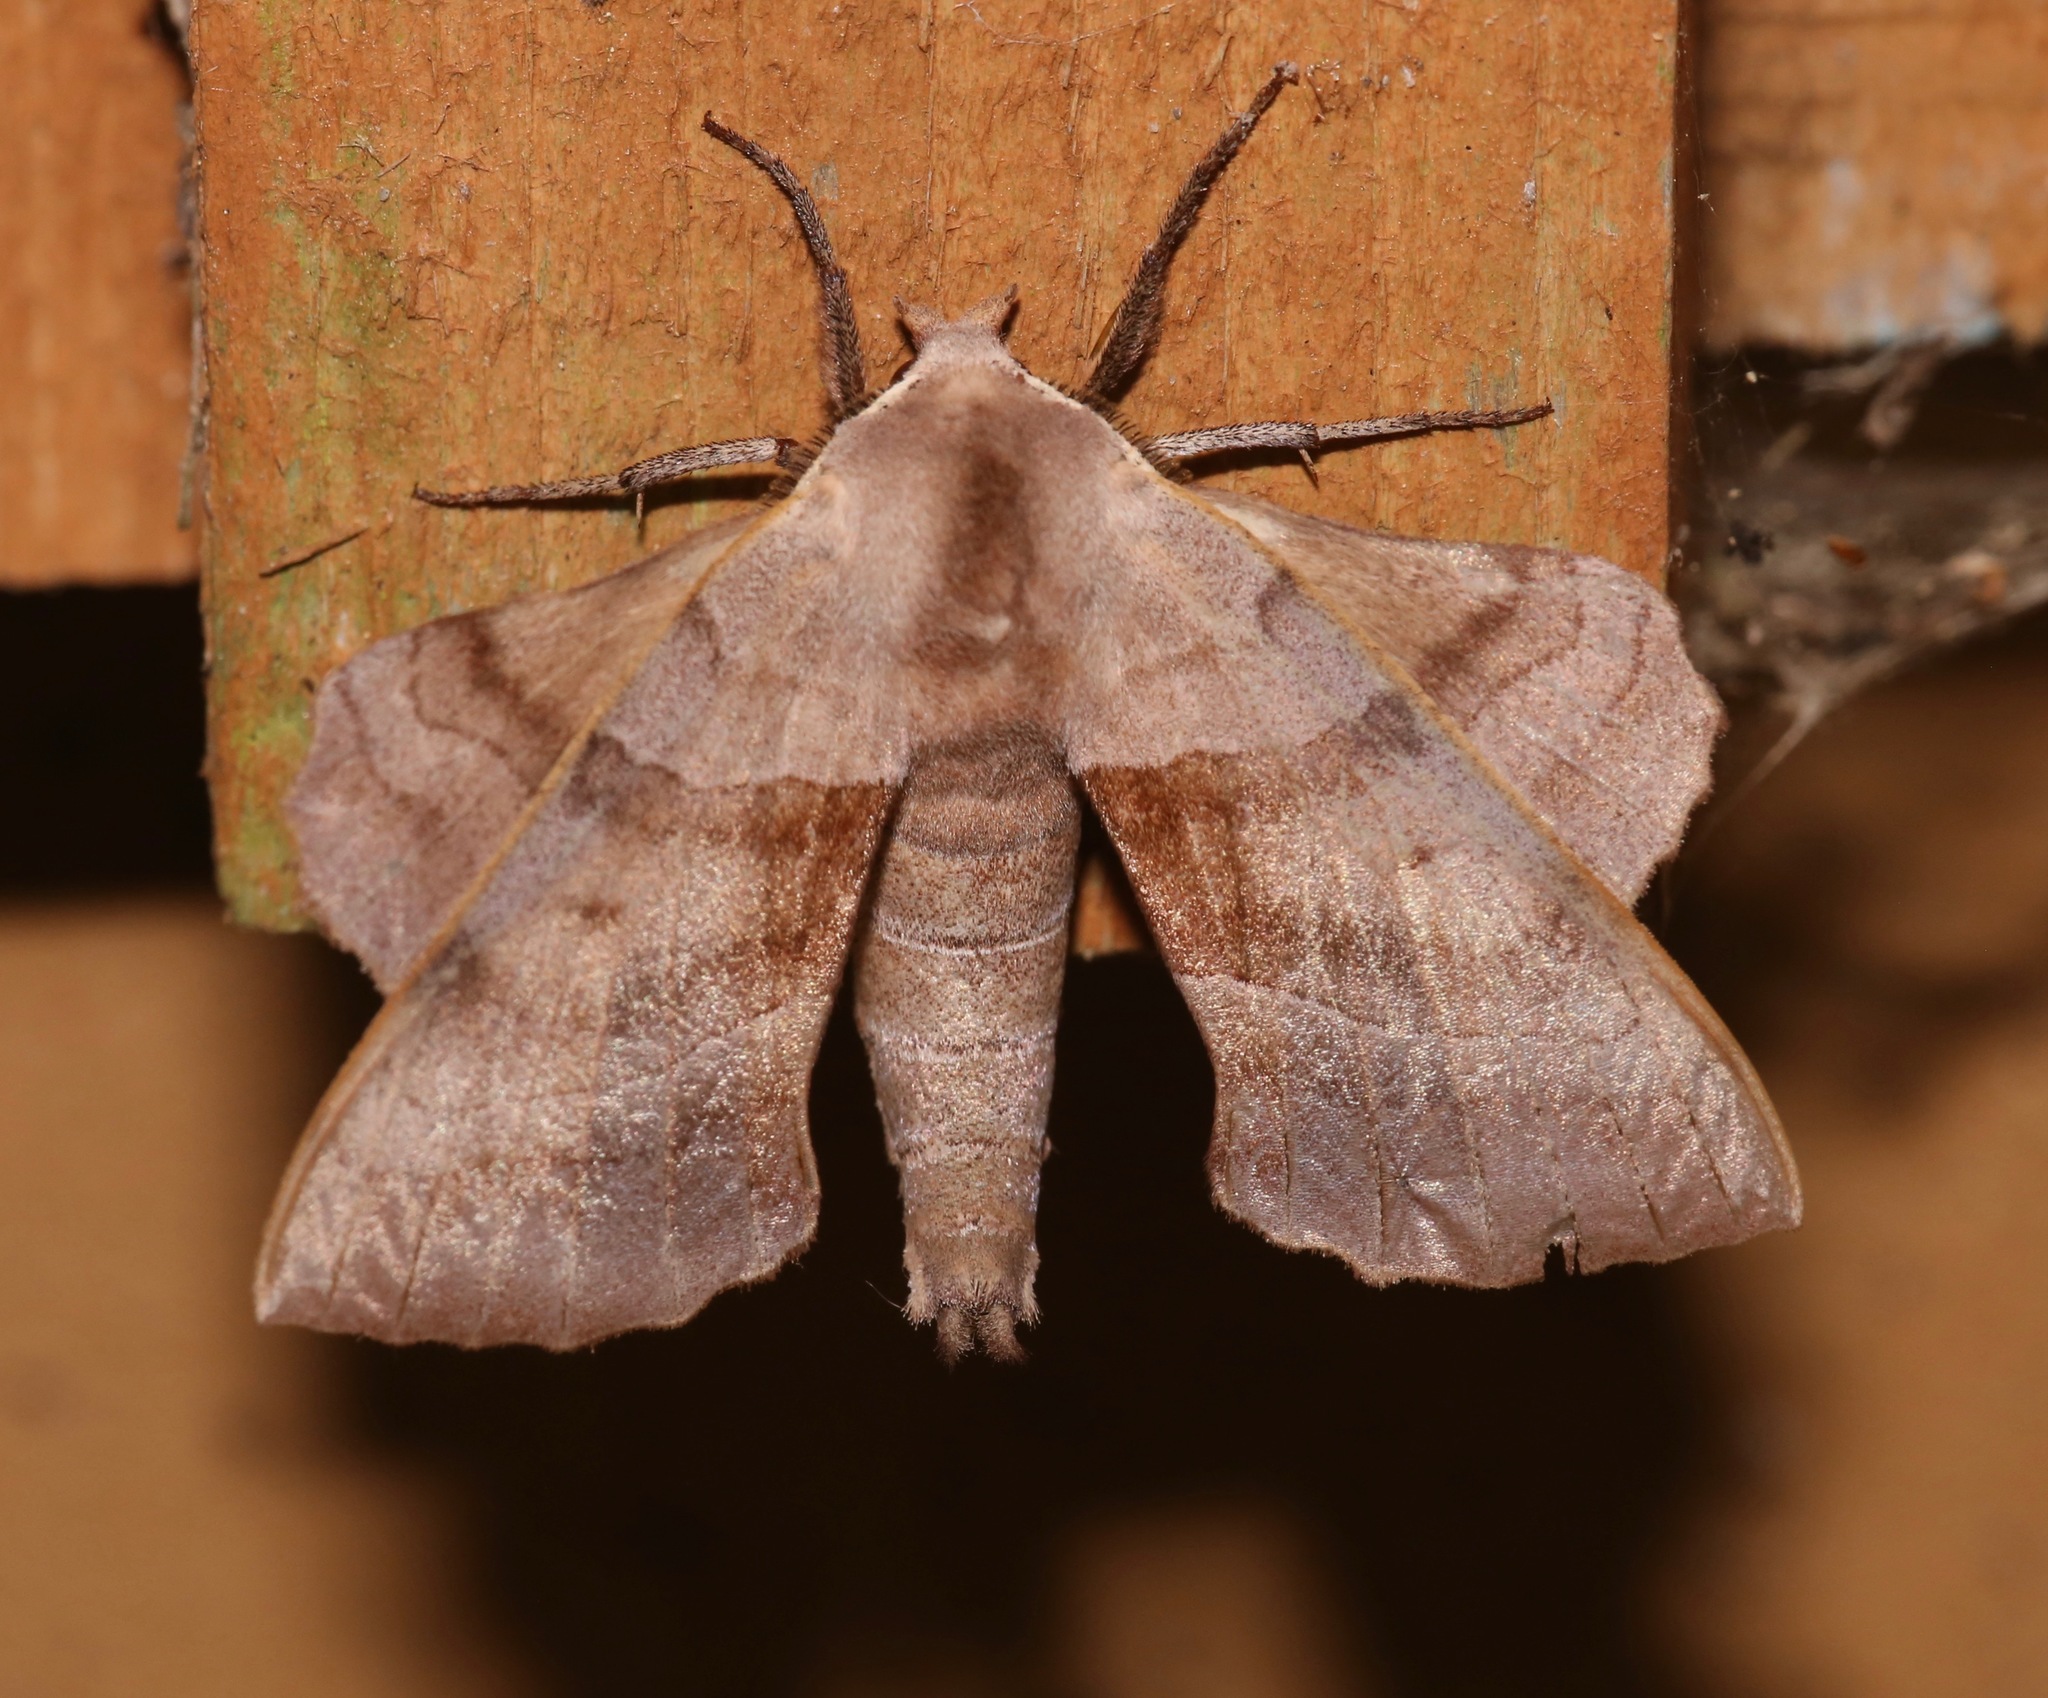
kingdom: Animalia
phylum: Arthropoda
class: Insecta
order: Lepidoptera
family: Sphingidae
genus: Amorpha
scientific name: Amorpha juglandis
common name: Walnut sphinx
